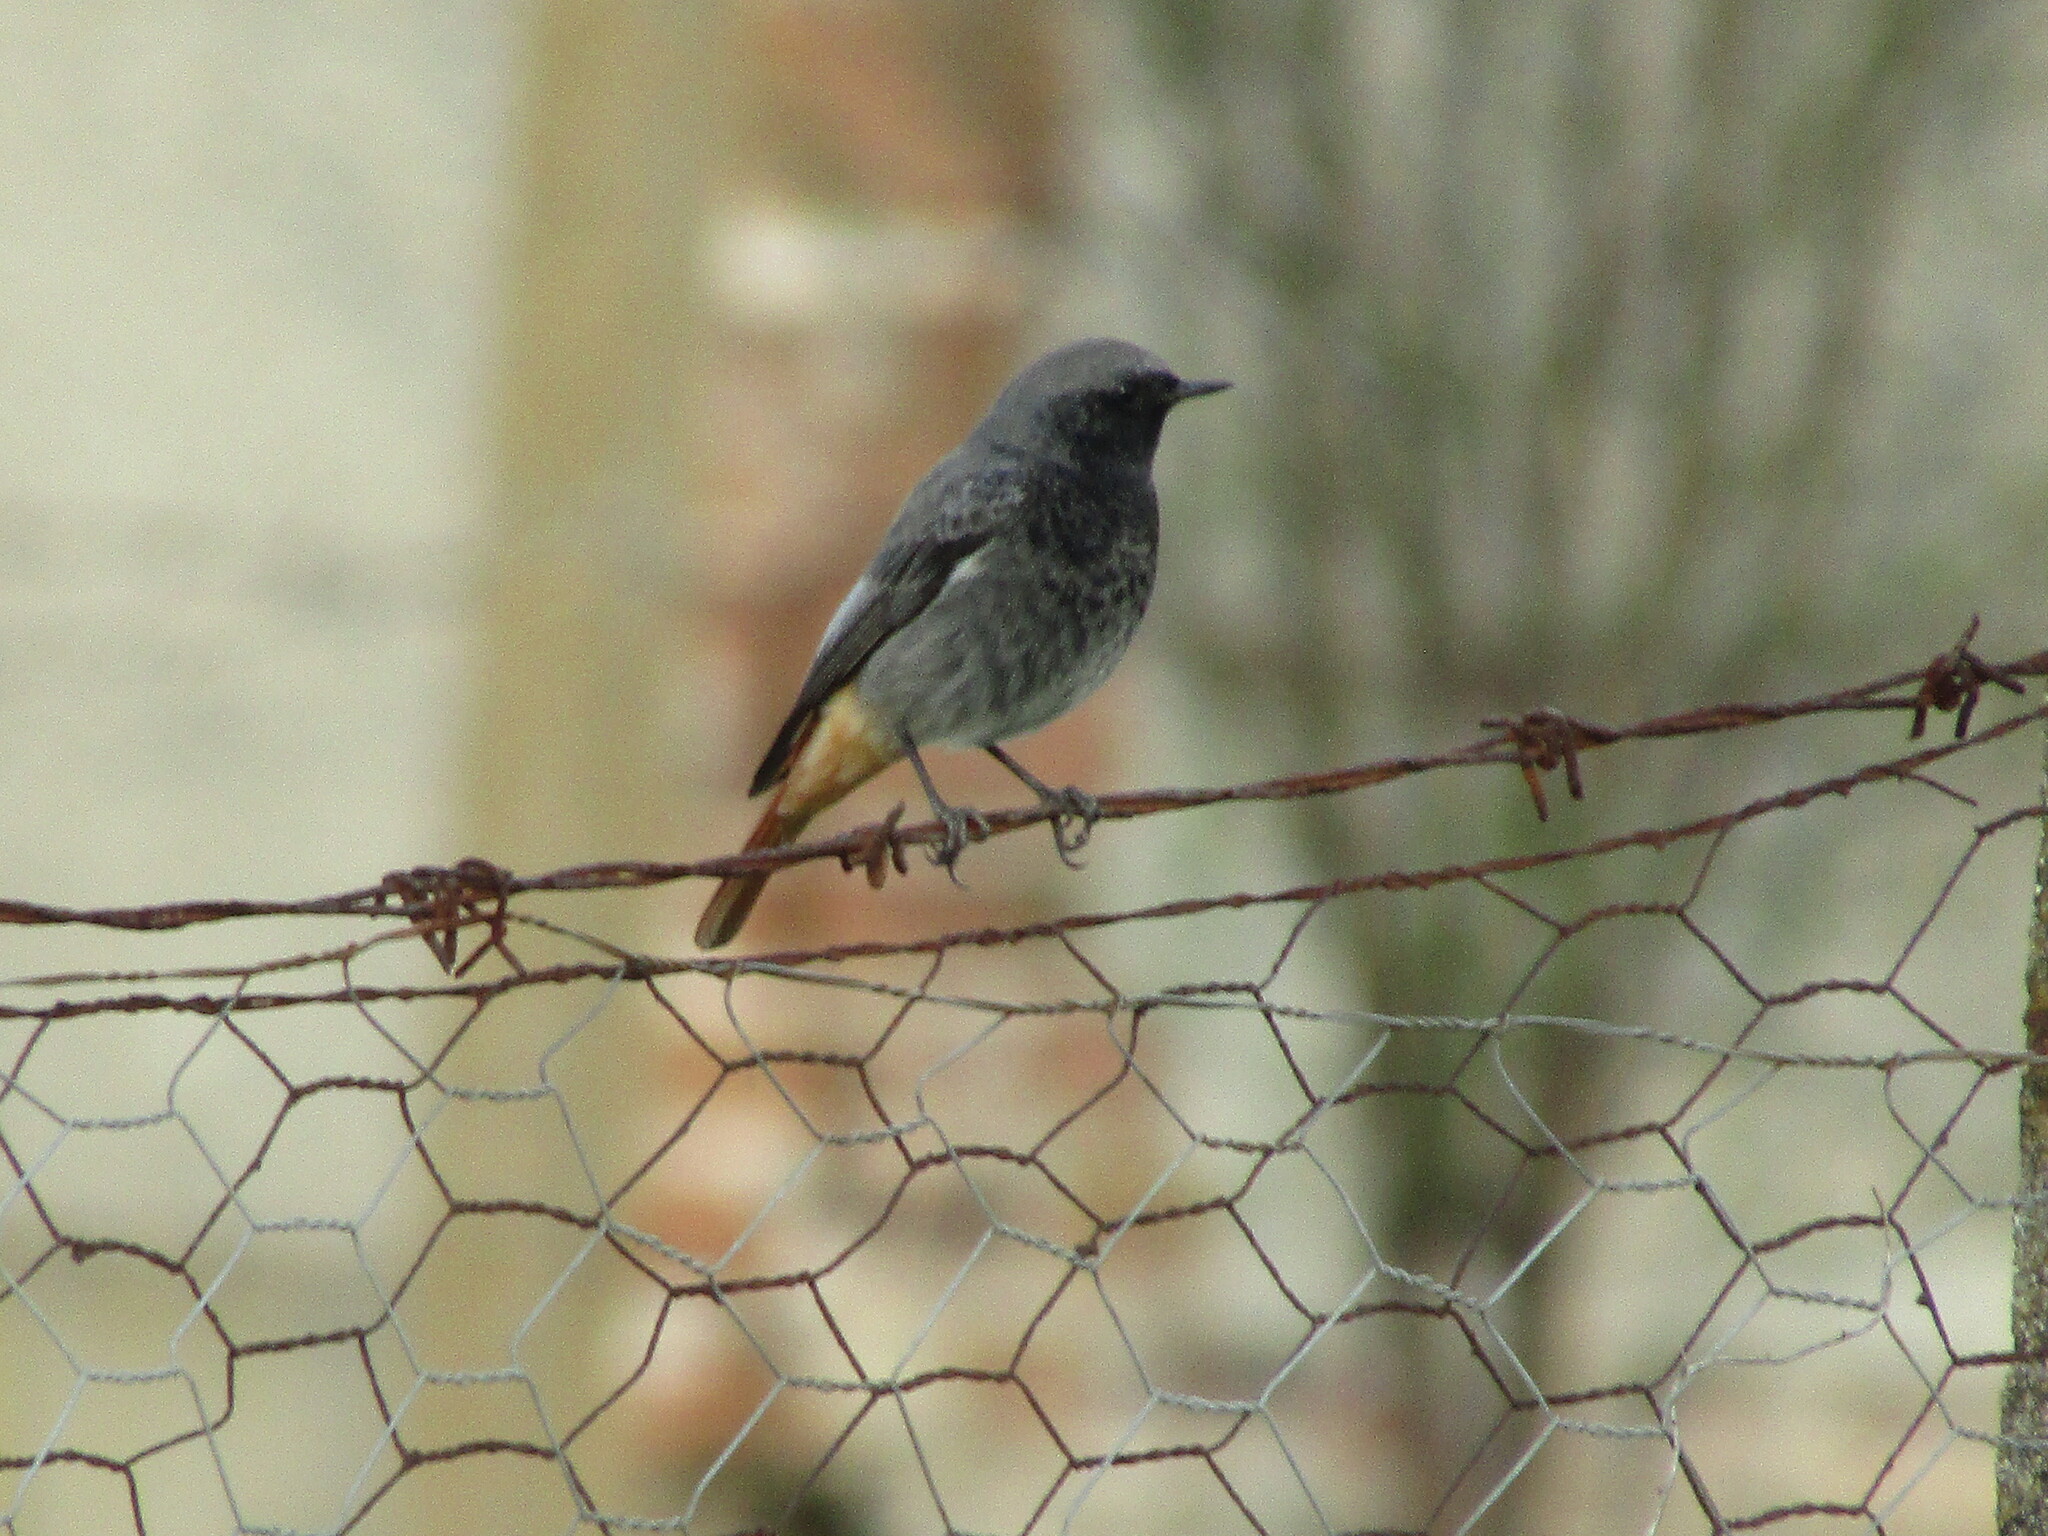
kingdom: Animalia
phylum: Chordata
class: Aves
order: Passeriformes
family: Muscicapidae
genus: Phoenicurus
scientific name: Phoenicurus ochruros
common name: Black redstart
